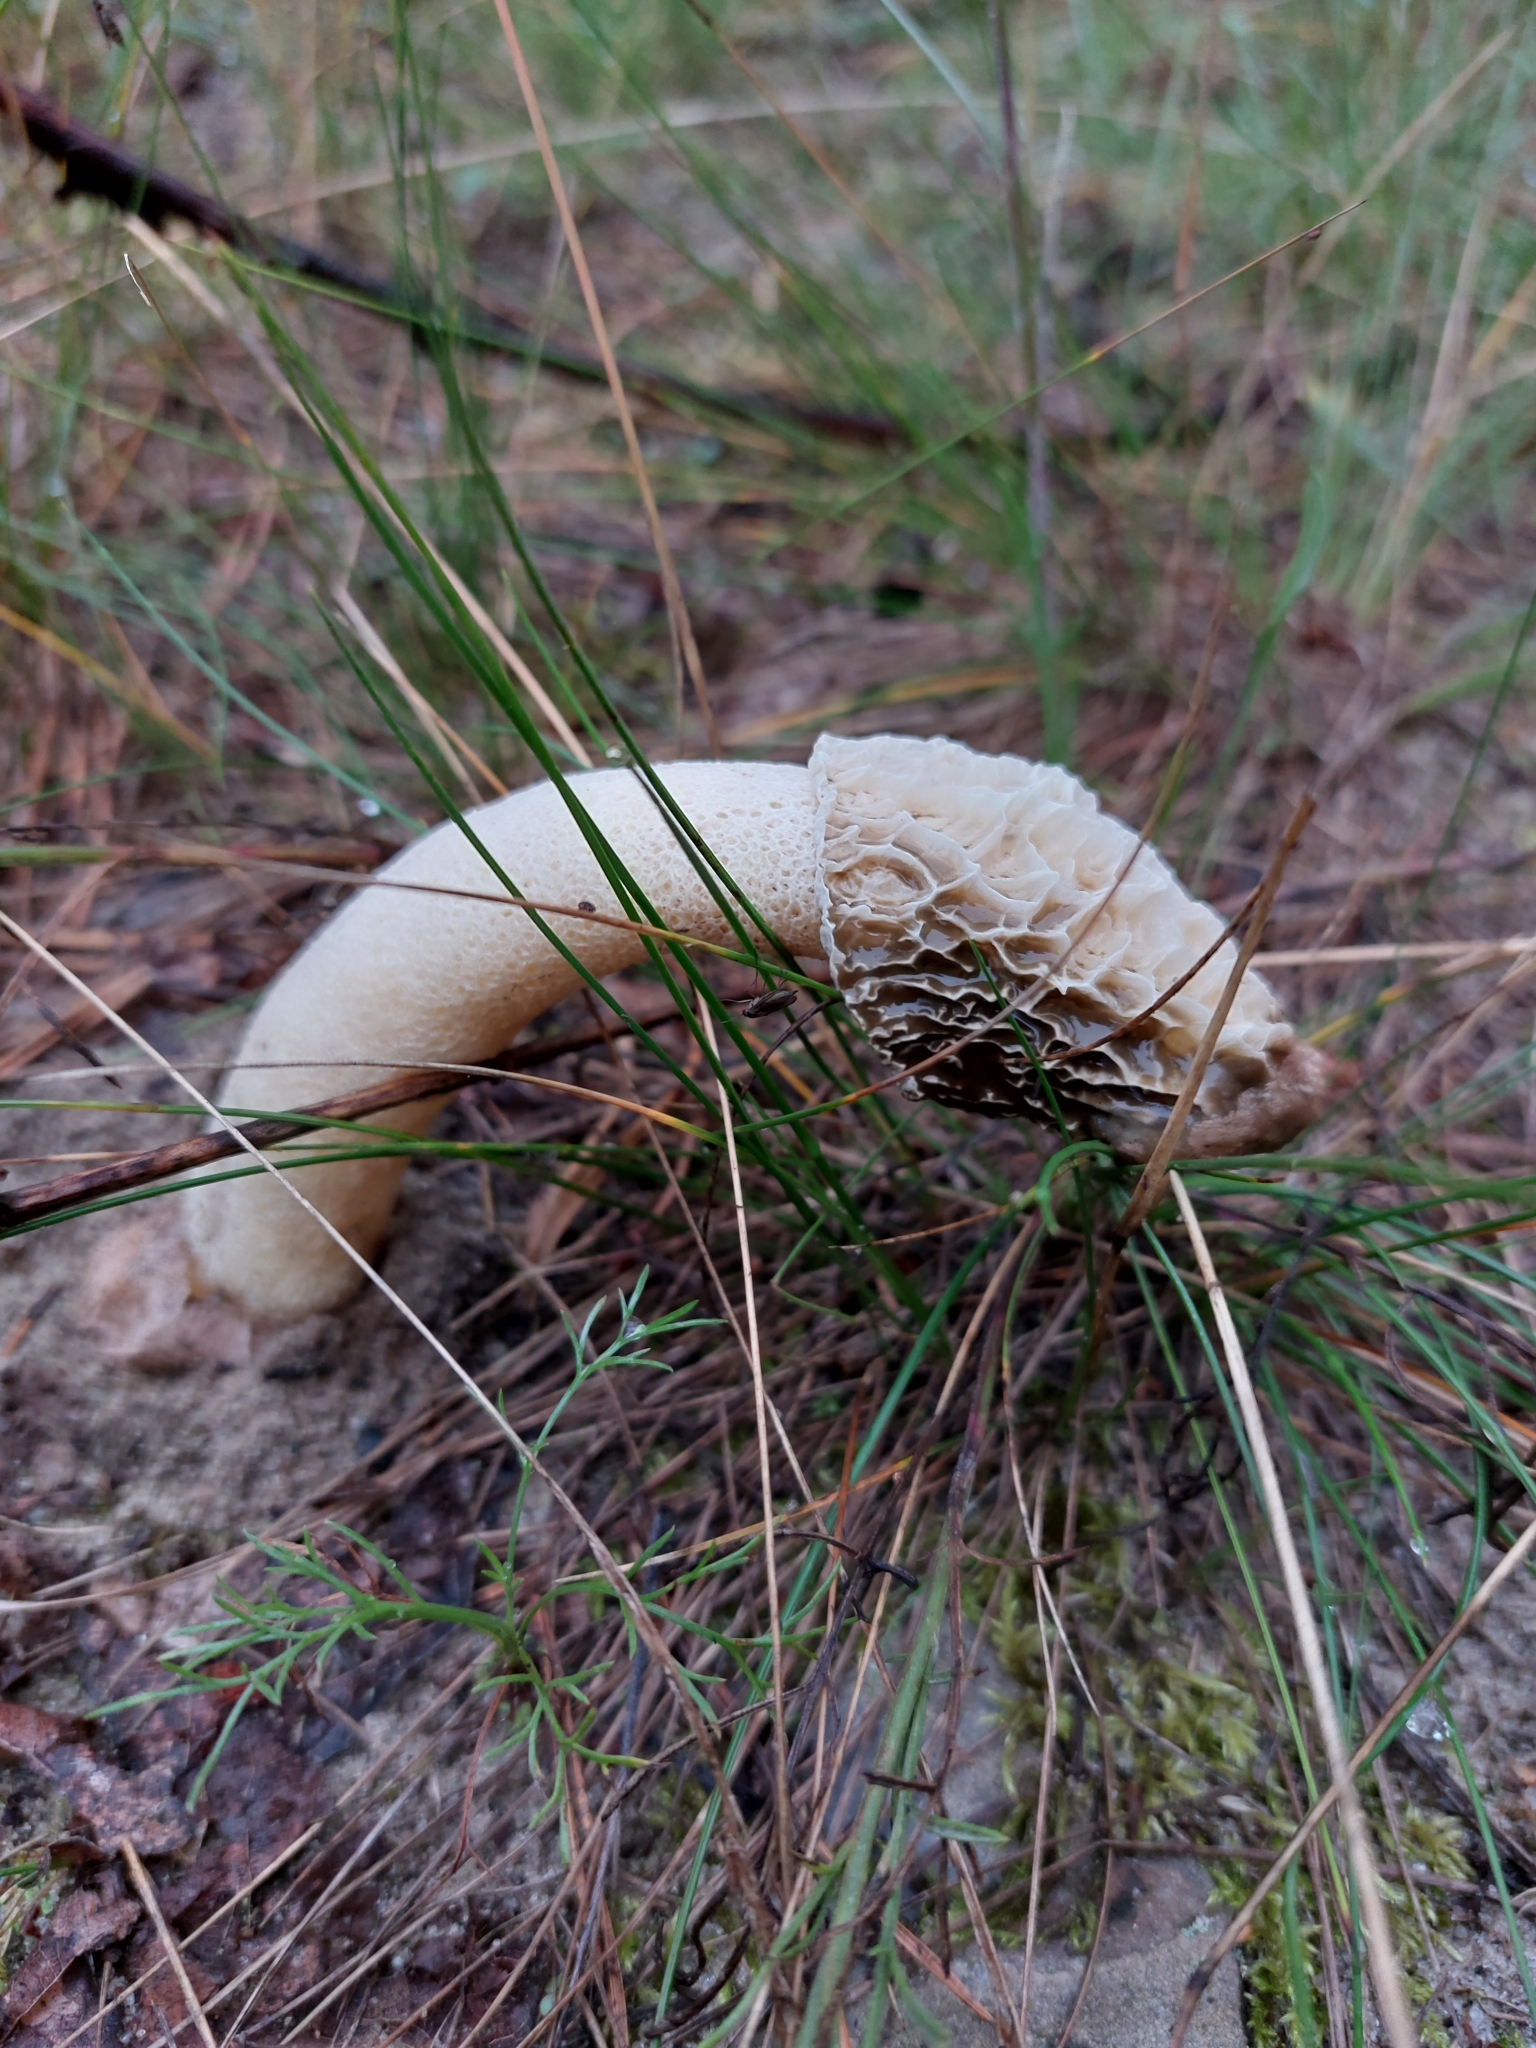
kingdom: Fungi
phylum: Basidiomycota
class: Agaricomycetes
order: Phallales
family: Phallaceae
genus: Phallus
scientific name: Phallus impudicus
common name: Common stinkhorn
